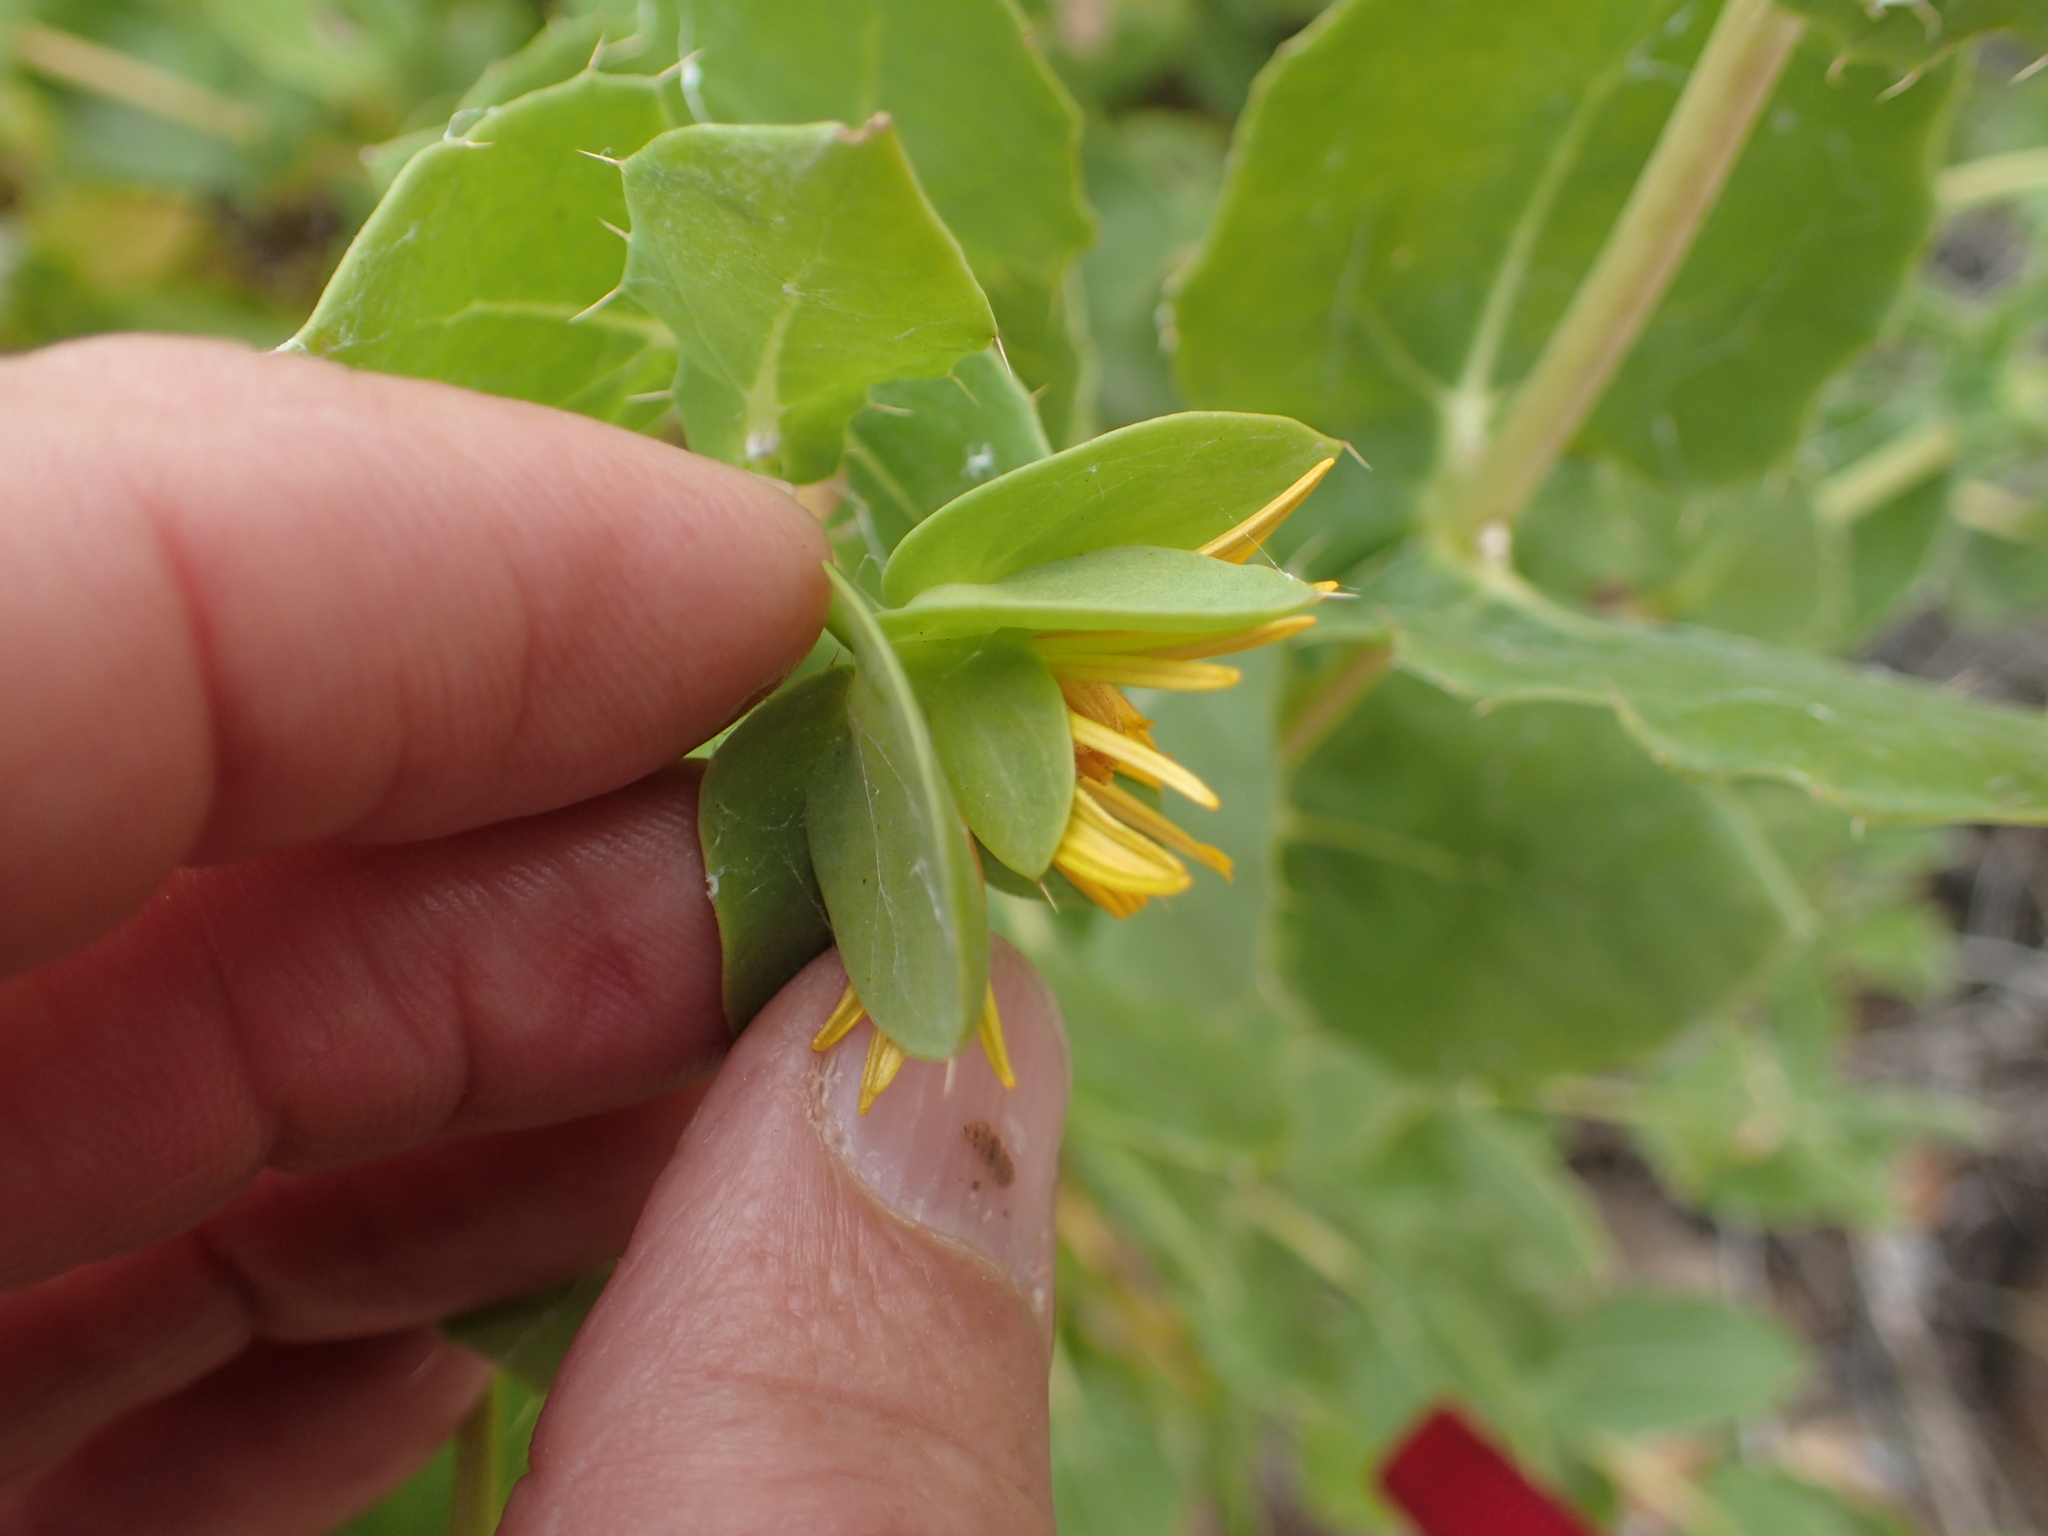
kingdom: Plantae
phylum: Tracheophyta
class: Magnoliopsida
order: Asterales
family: Asteraceae
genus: Didelta
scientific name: Didelta spinosa
